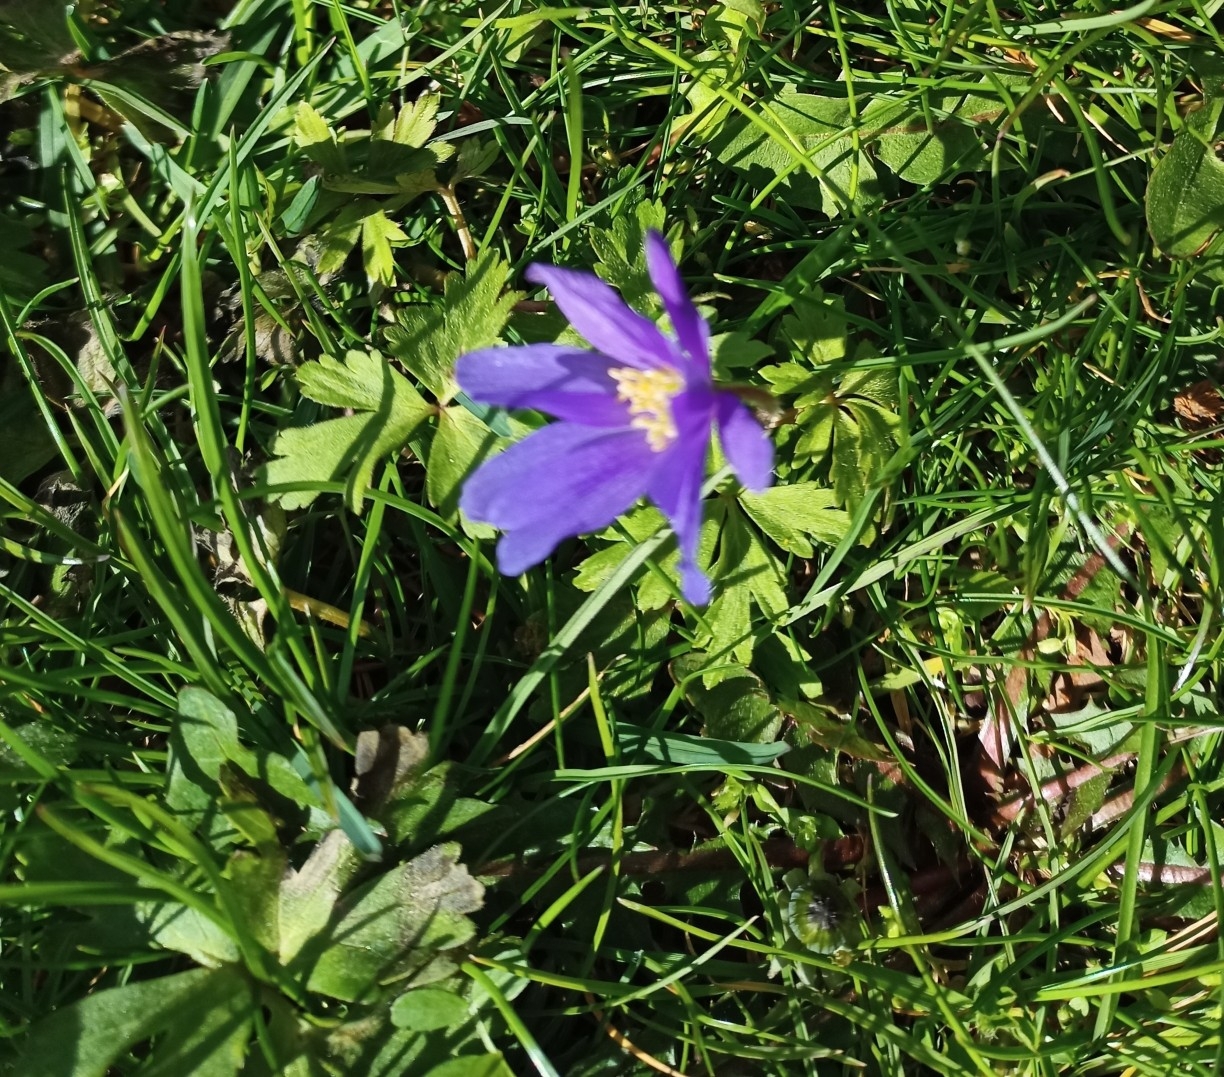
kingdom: Plantae
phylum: Tracheophyta
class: Magnoliopsida
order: Ranunculales
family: Ranunculaceae
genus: Anemone
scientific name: Anemone blanda
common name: Balkan anemone
